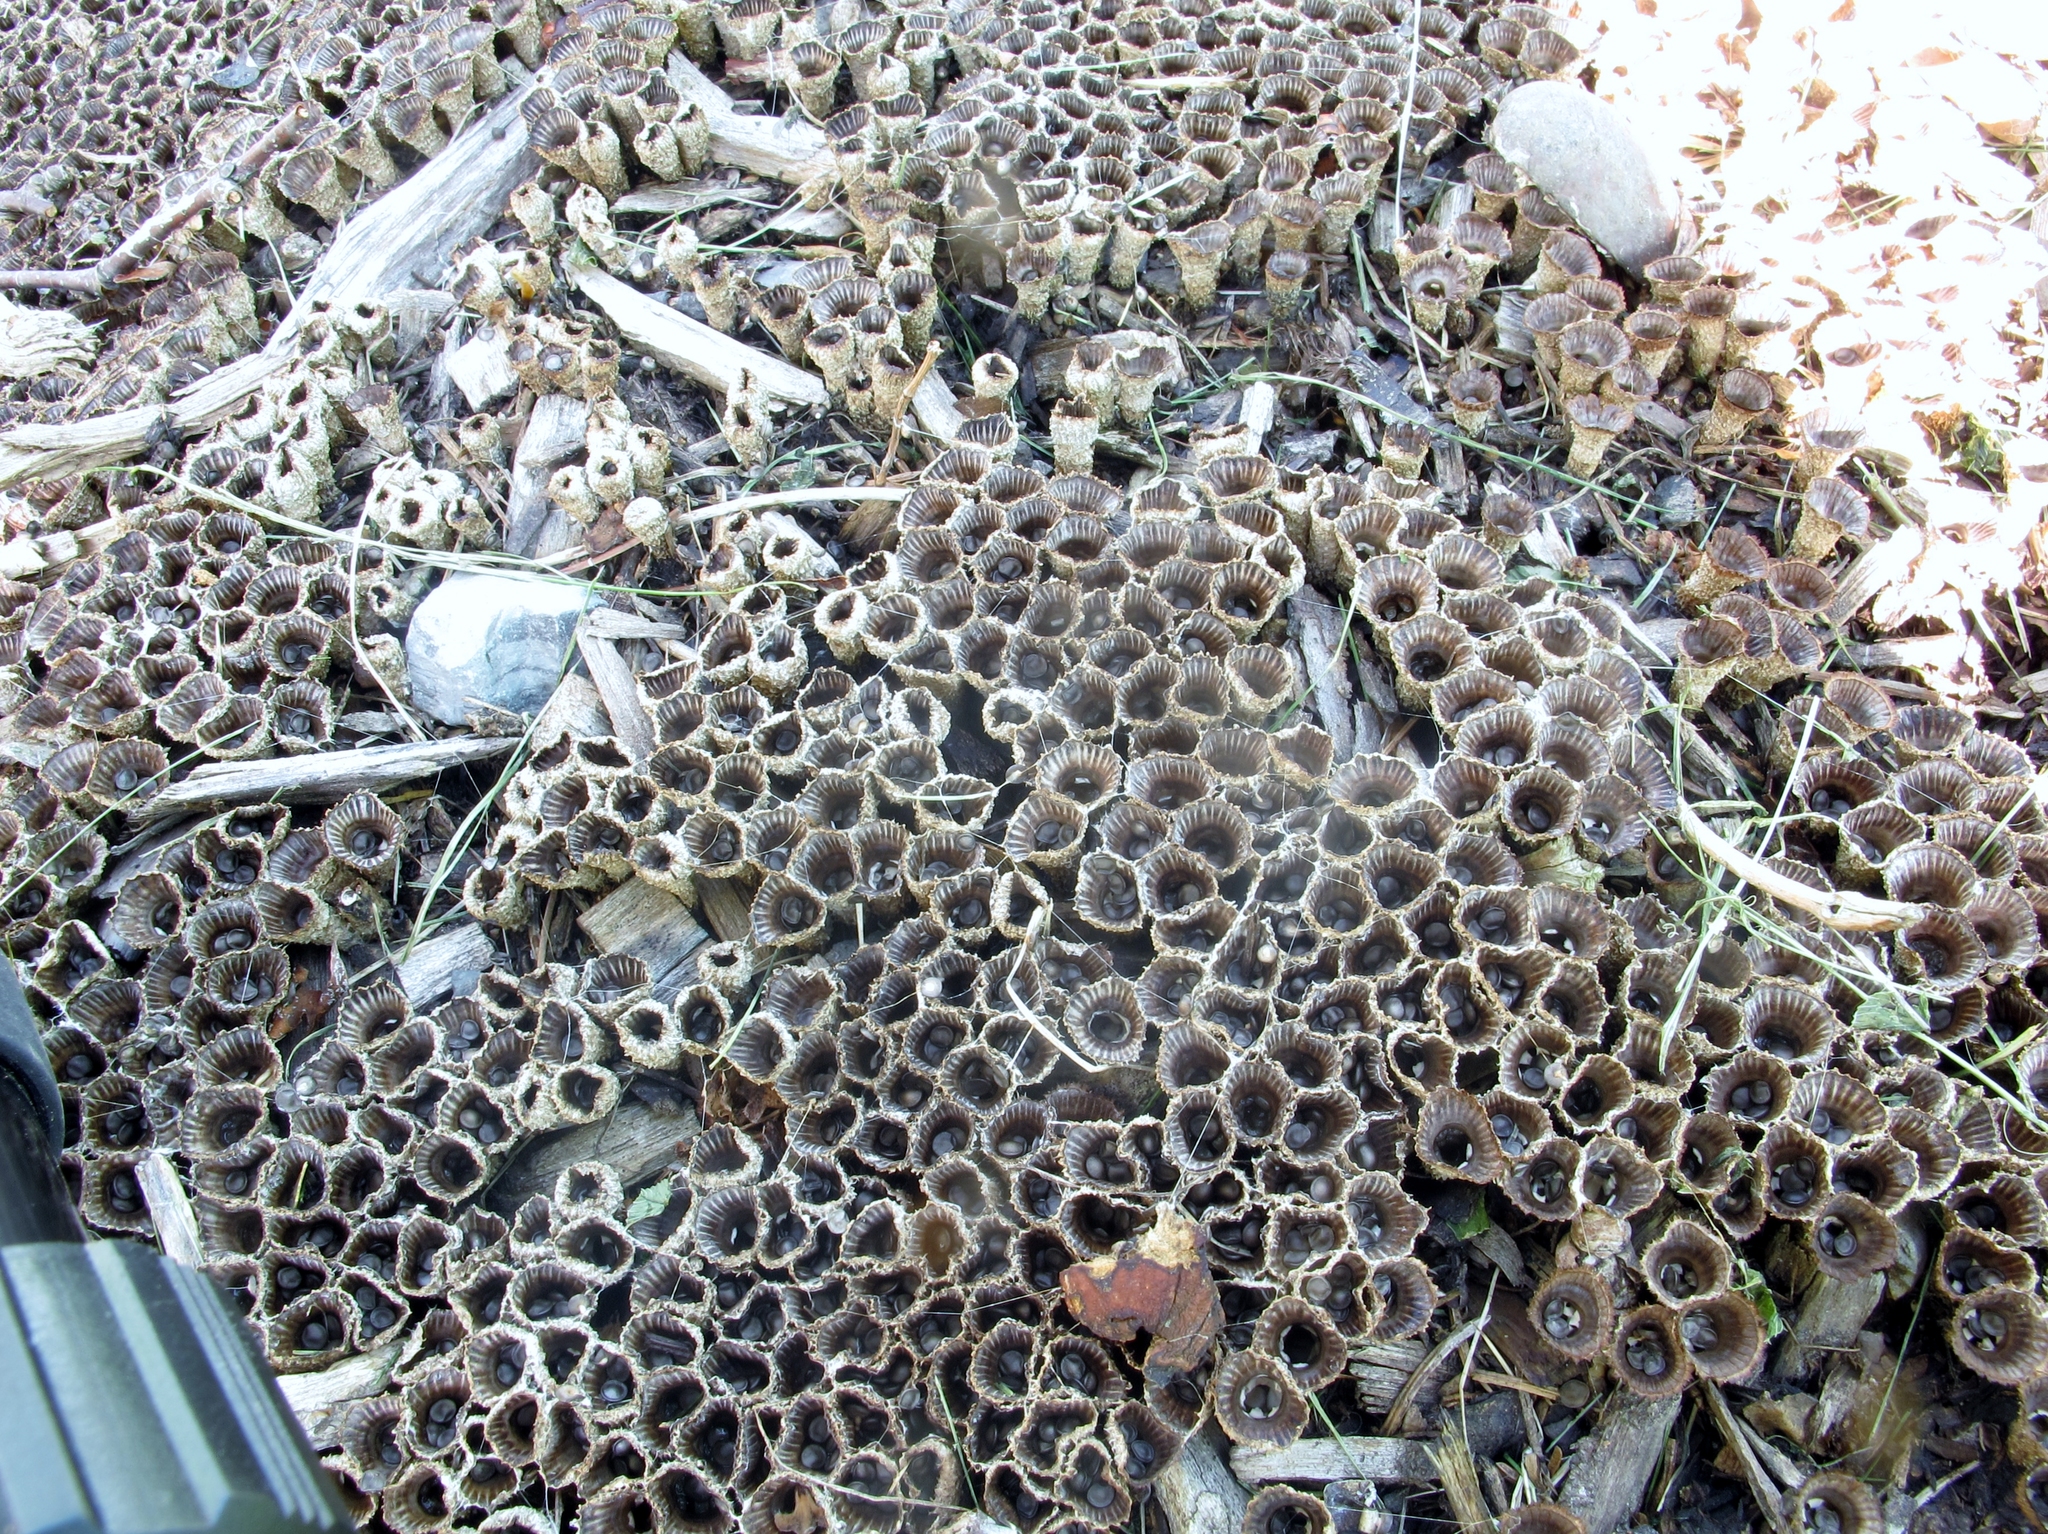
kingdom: Fungi
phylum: Basidiomycota
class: Agaricomycetes
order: Agaricales
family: Agaricaceae
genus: Cyathus
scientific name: Cyathus striatus
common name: Fluted bird's nest
